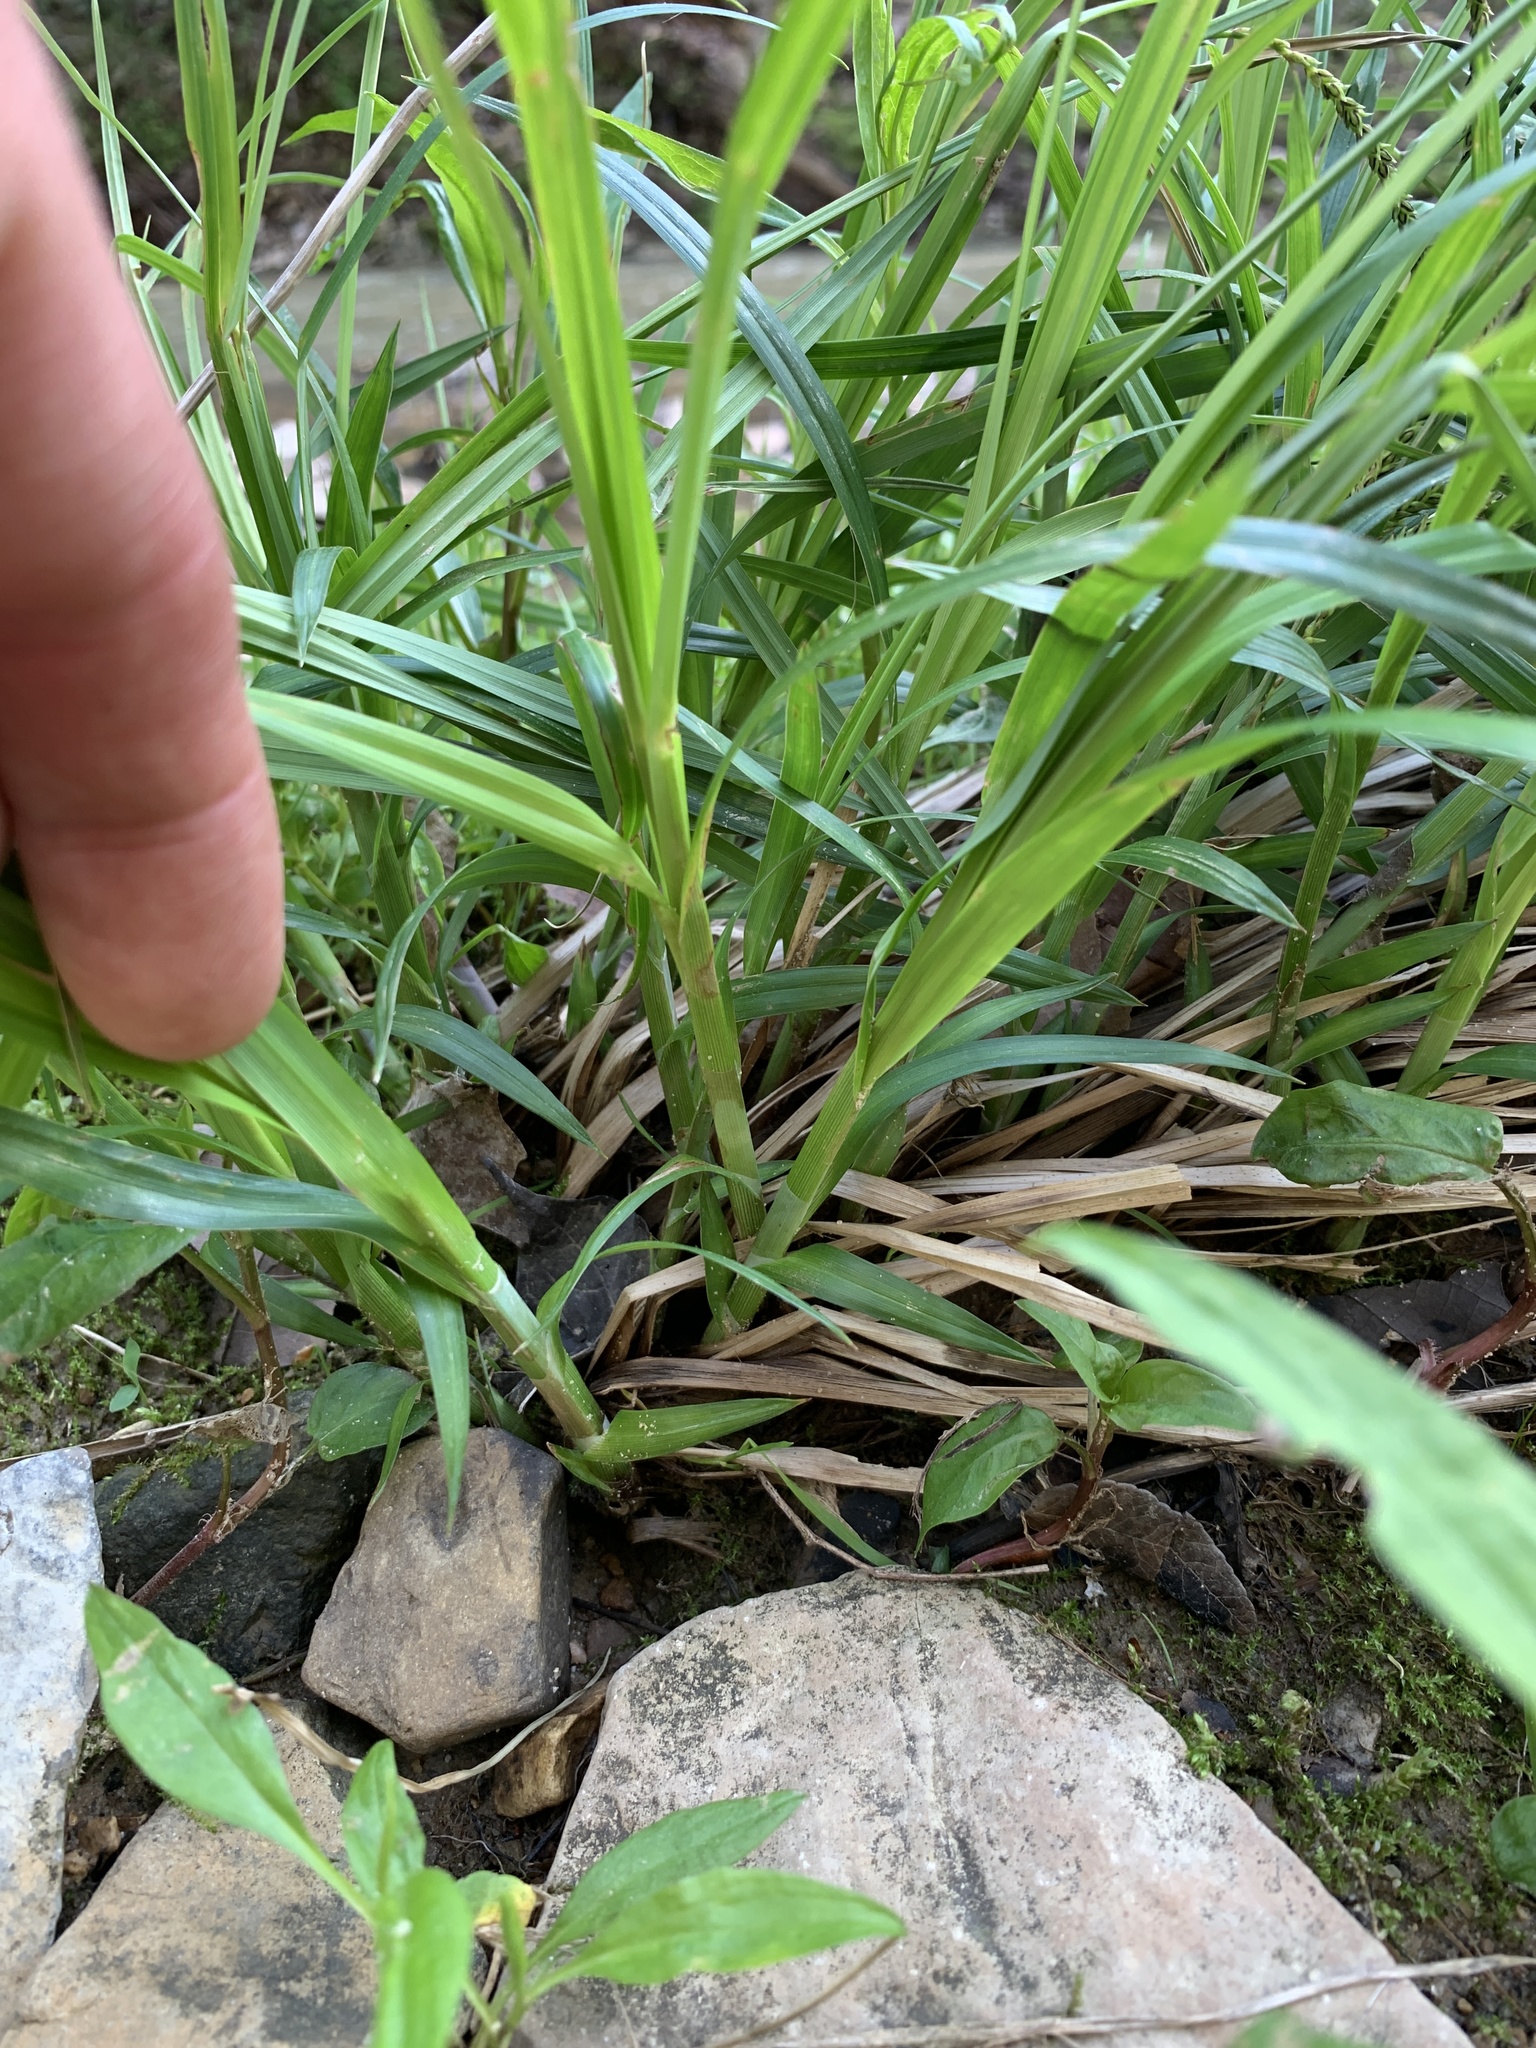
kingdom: Plantae
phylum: Tracheophyta
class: Liliopsida
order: Poales
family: Cyperaceae
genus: Carex
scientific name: Carex torta
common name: Twisted sedge
